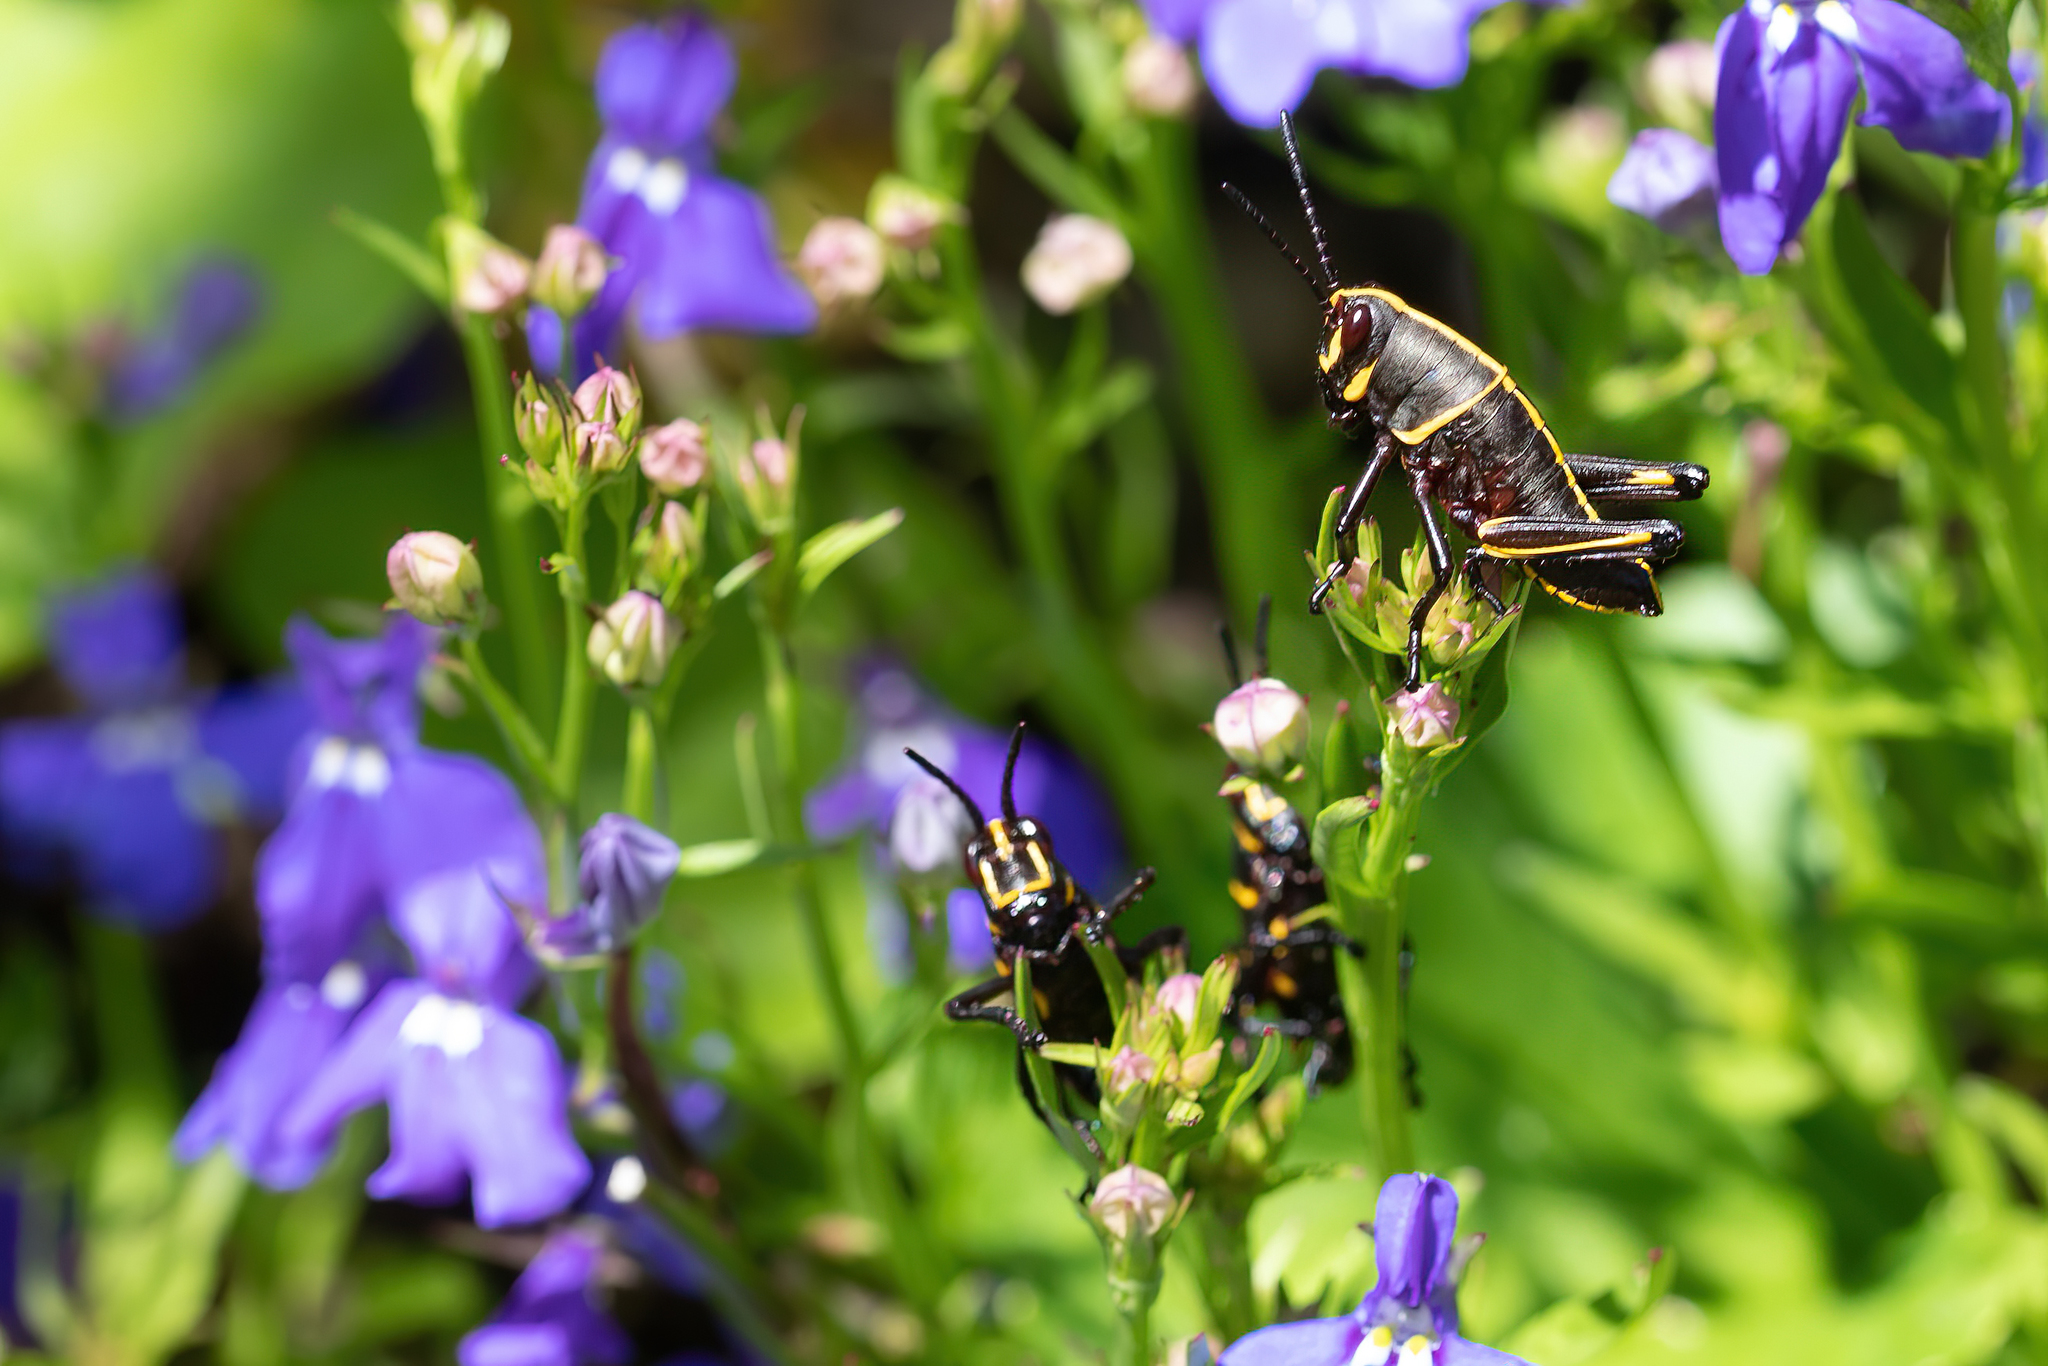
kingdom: Animalia
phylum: Arthropoda
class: Insecta
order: Orthoptera
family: Romaleidae
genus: Romalea
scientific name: Romalea microptera
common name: Eastern lubber grasshopper
